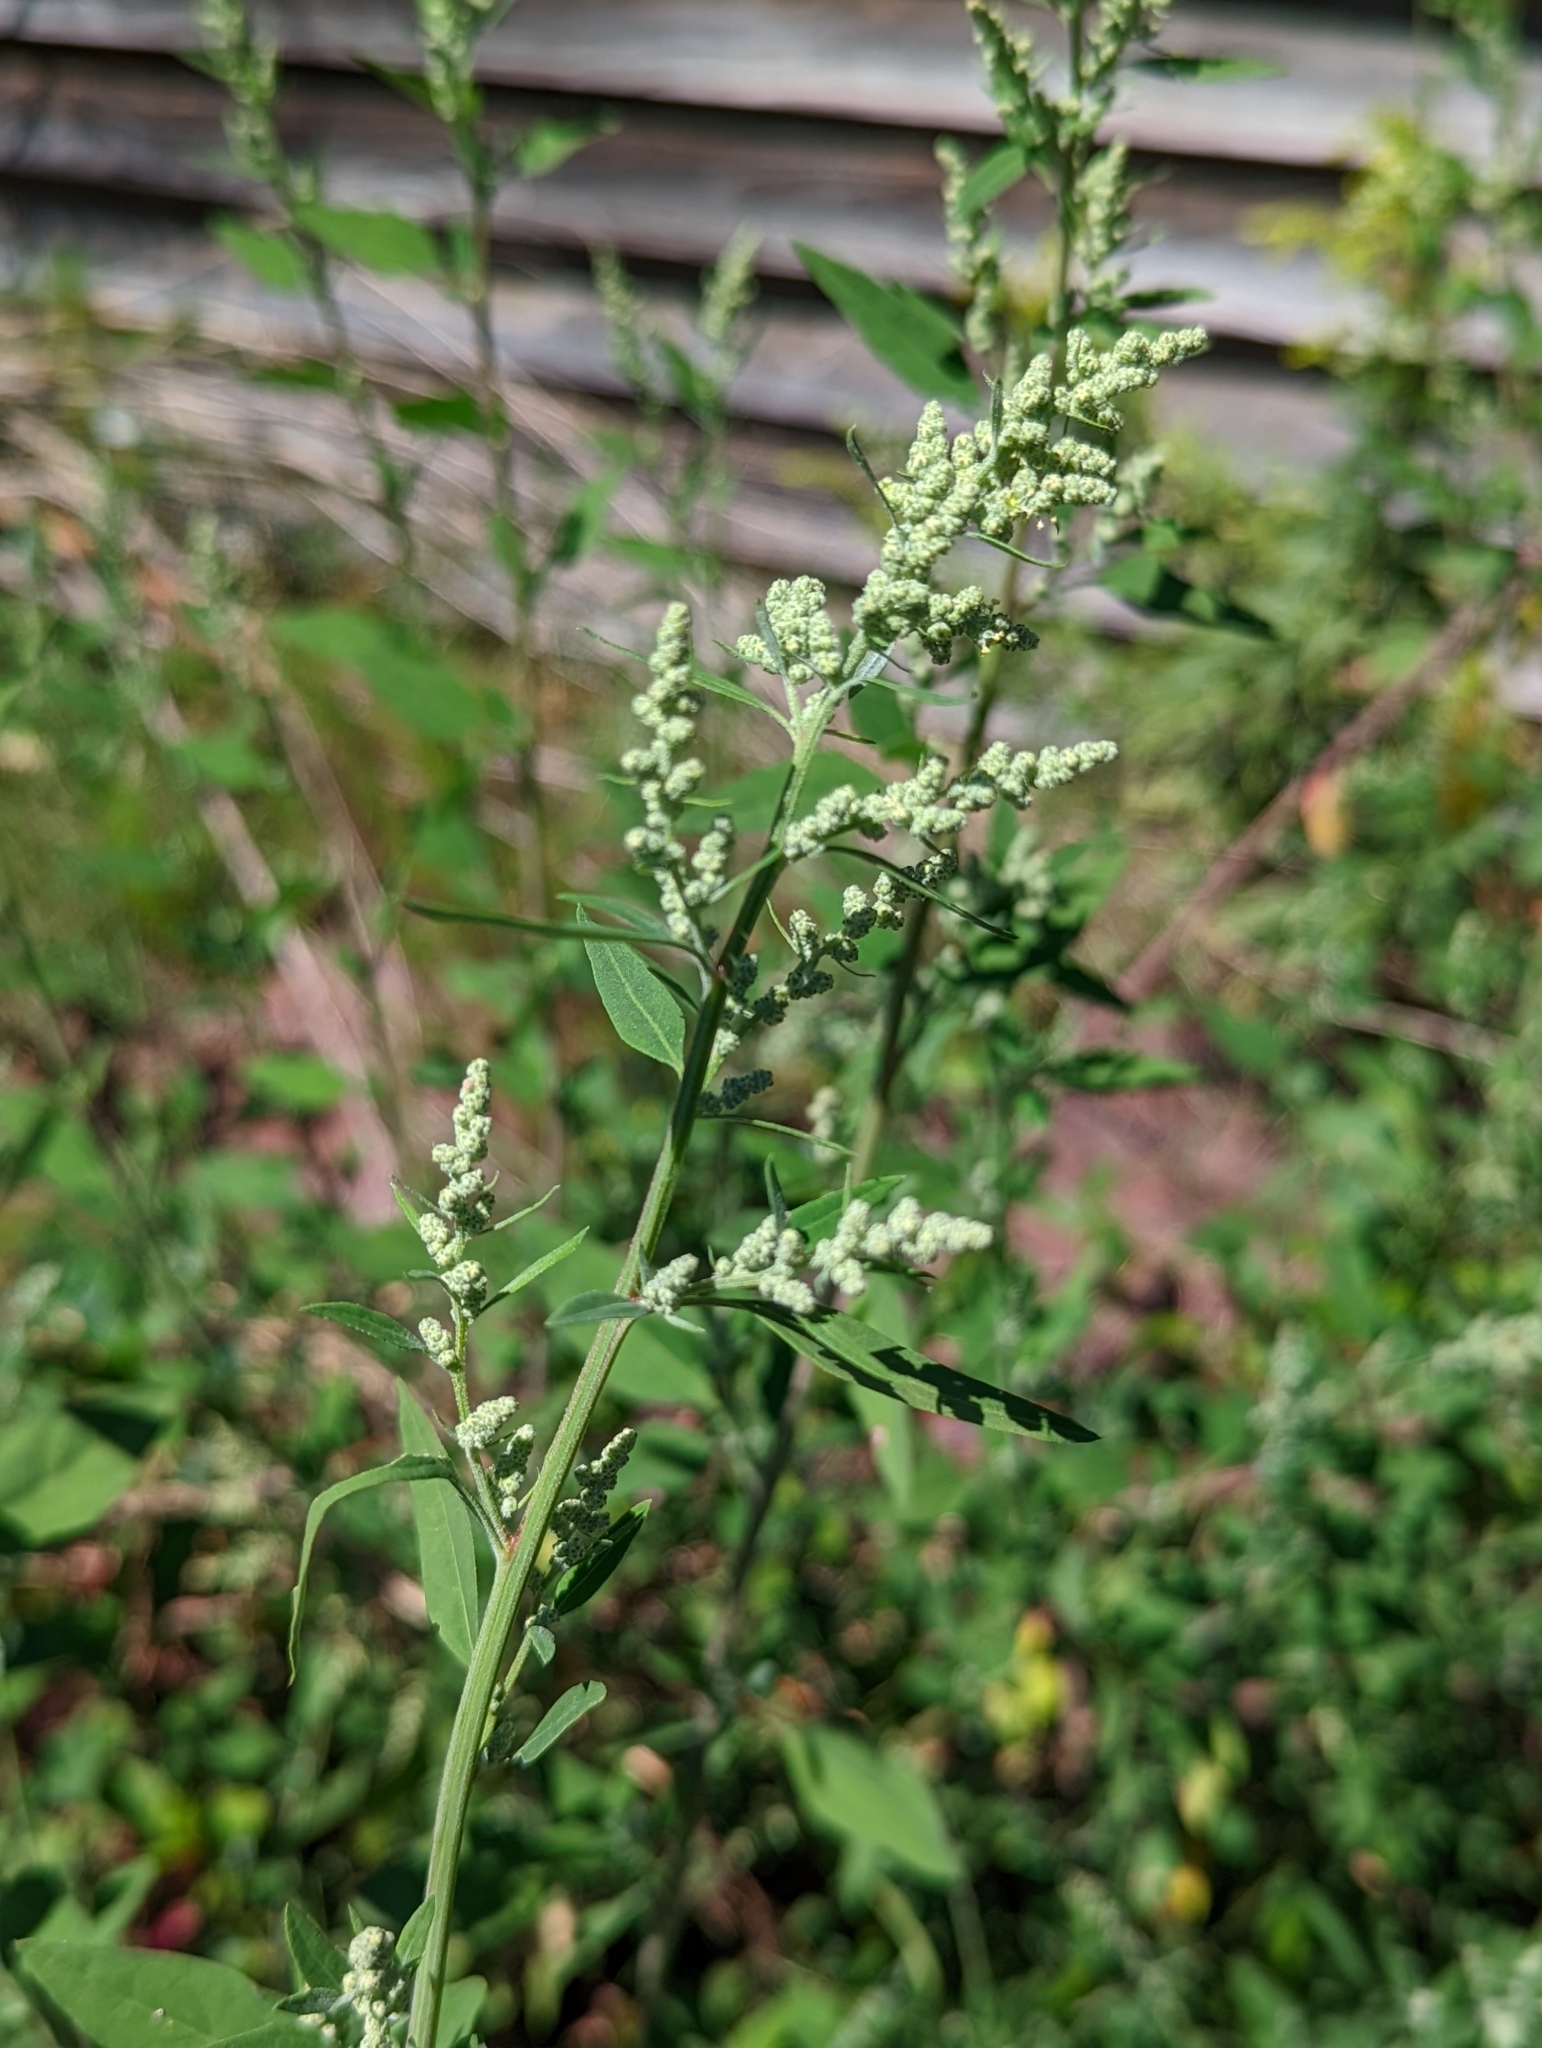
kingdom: Plantae
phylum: Tracheophyta
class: Magnoliopsida
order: Caryophyllales
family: Amaranthaceae
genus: Chenopodium
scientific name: Chenopodium album
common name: Fat-hen
